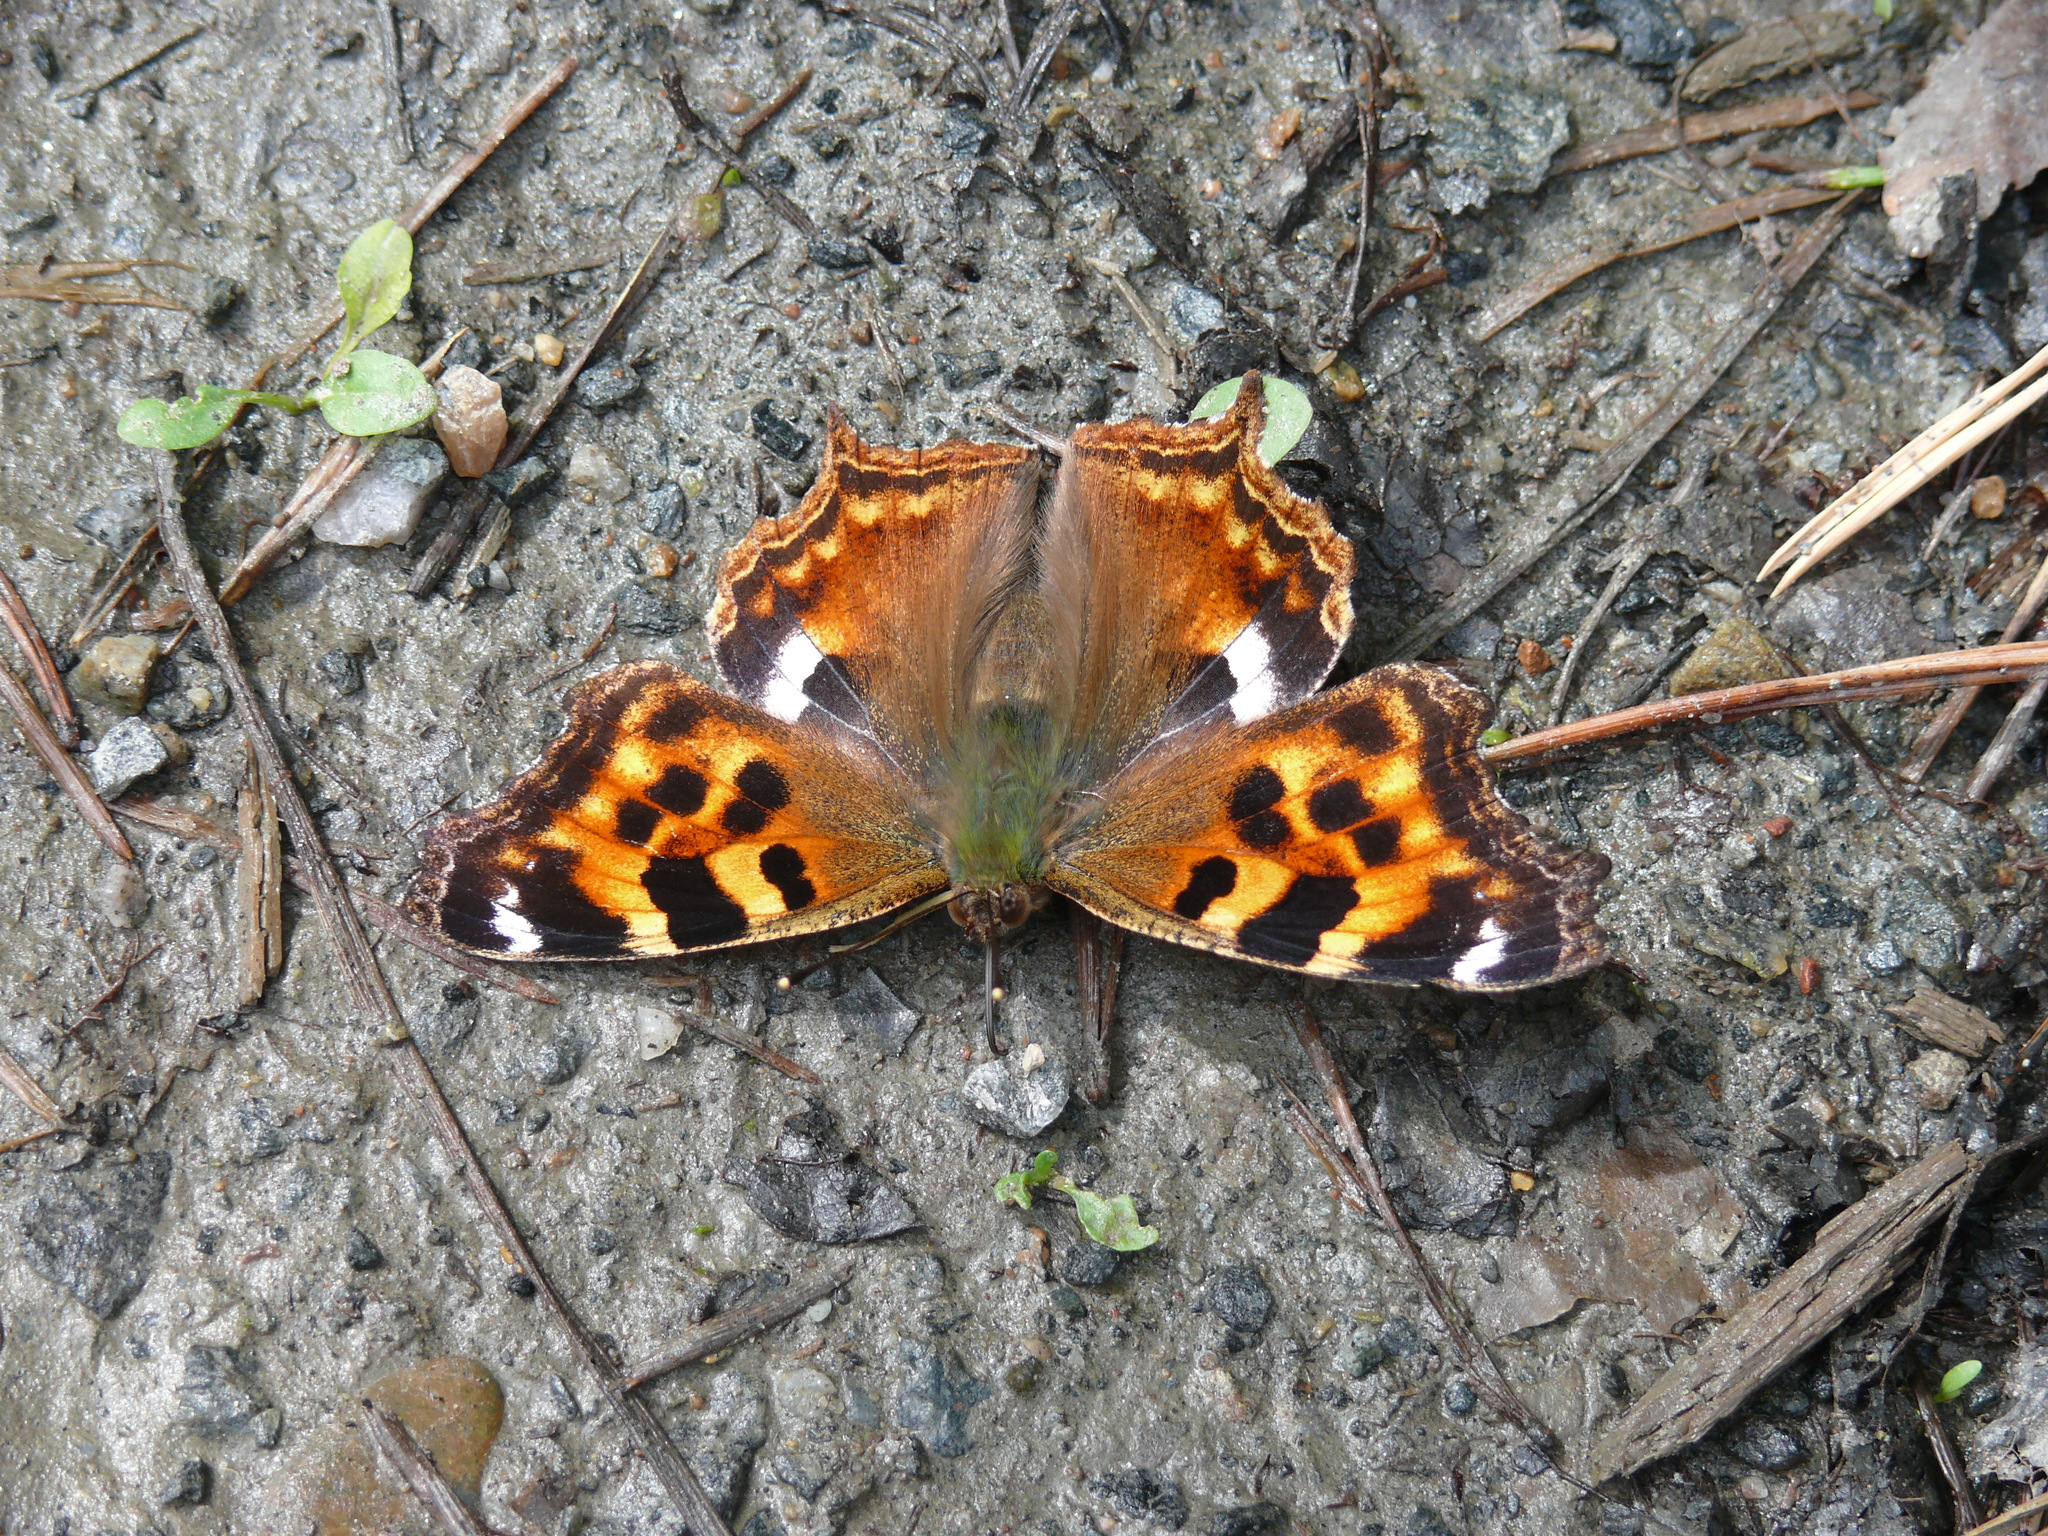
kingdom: Animalia
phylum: Arthropoda
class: Insecta
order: Lepidoptera
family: Nymphalidae
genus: Polygonia
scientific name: Polygonia vaualbum
